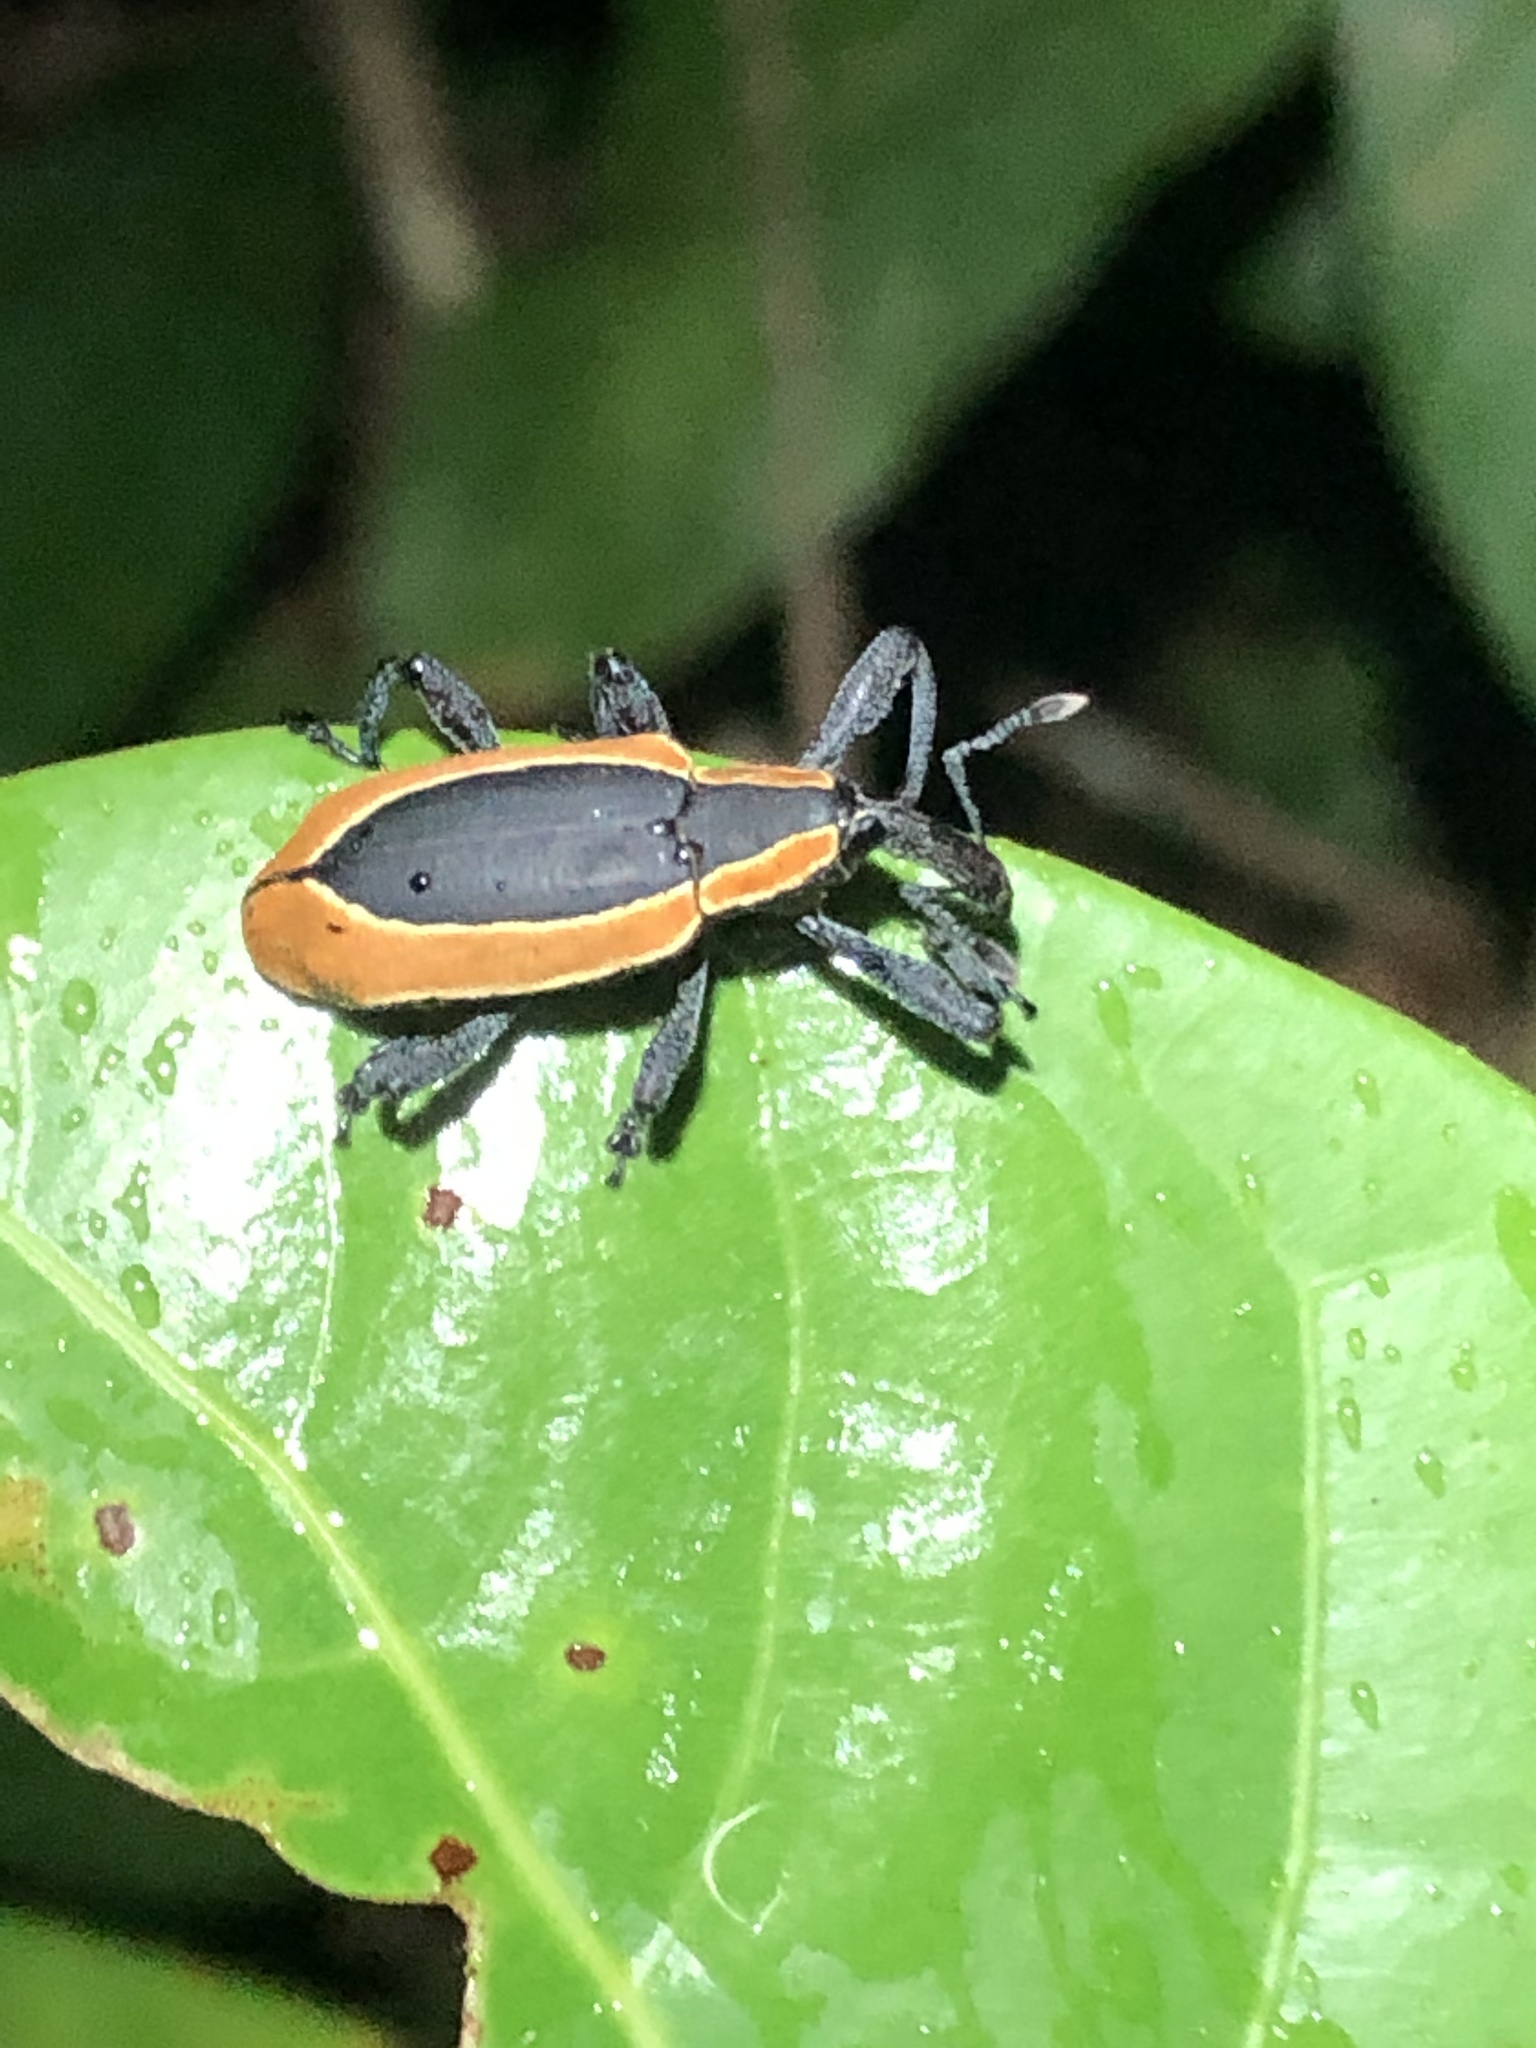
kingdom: Animalia
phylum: Arthropoda
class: Insecta
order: Coleoptera
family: Curculionidae
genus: Heilipus
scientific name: Heilipus discoides
